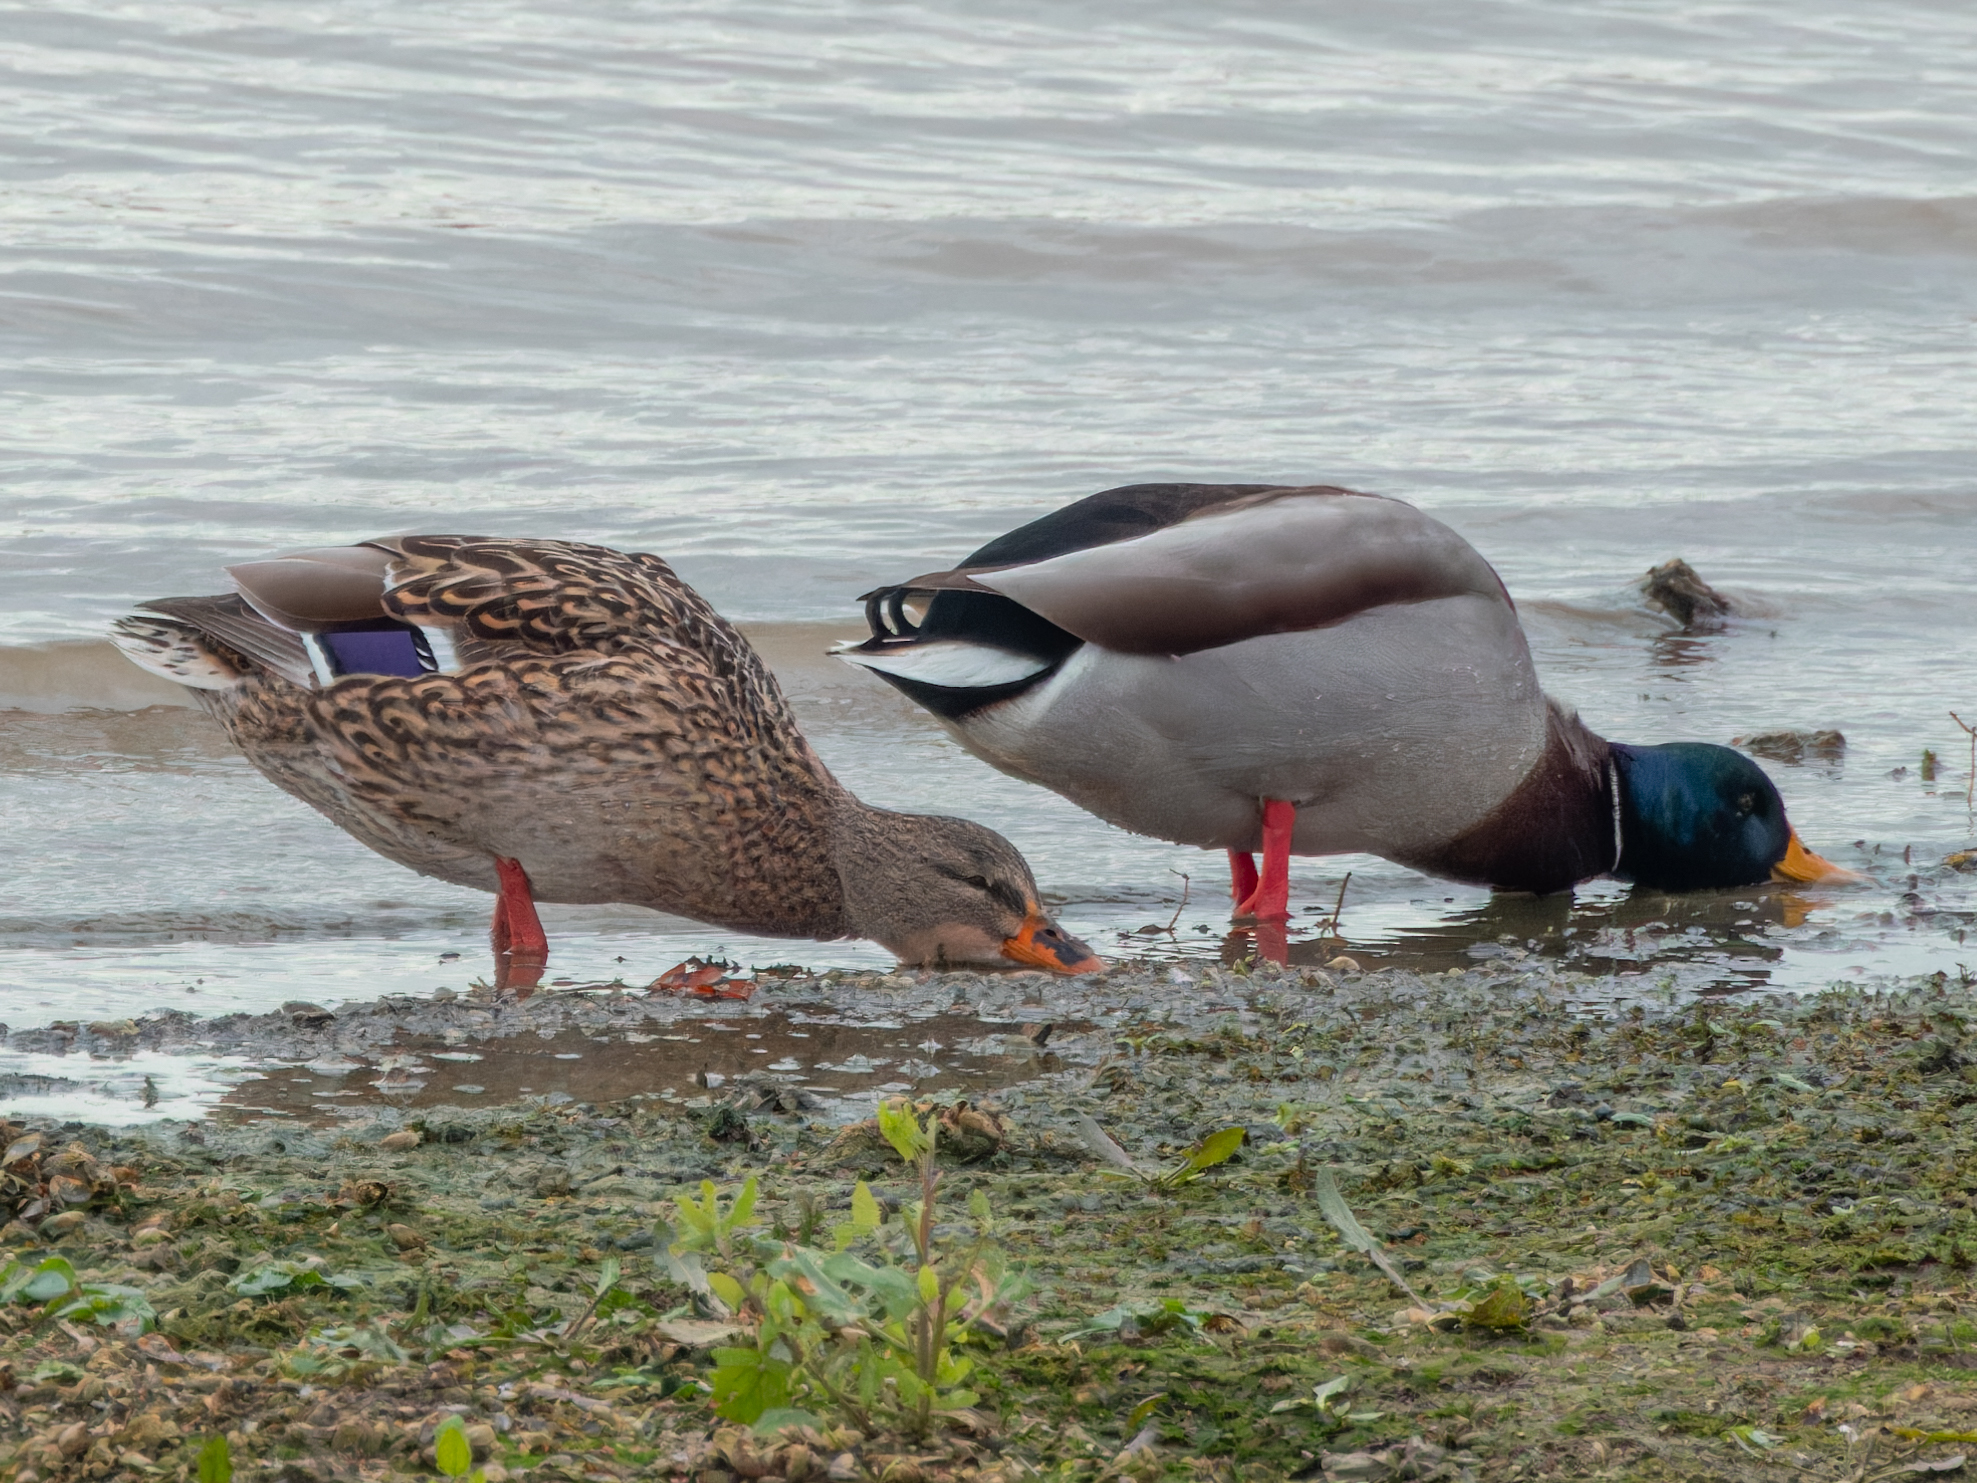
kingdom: Animalia
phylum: Chordata
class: Aves
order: Anseriformes
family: Anatidae
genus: Anas
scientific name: Anas platyrhynchos
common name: Mallard
